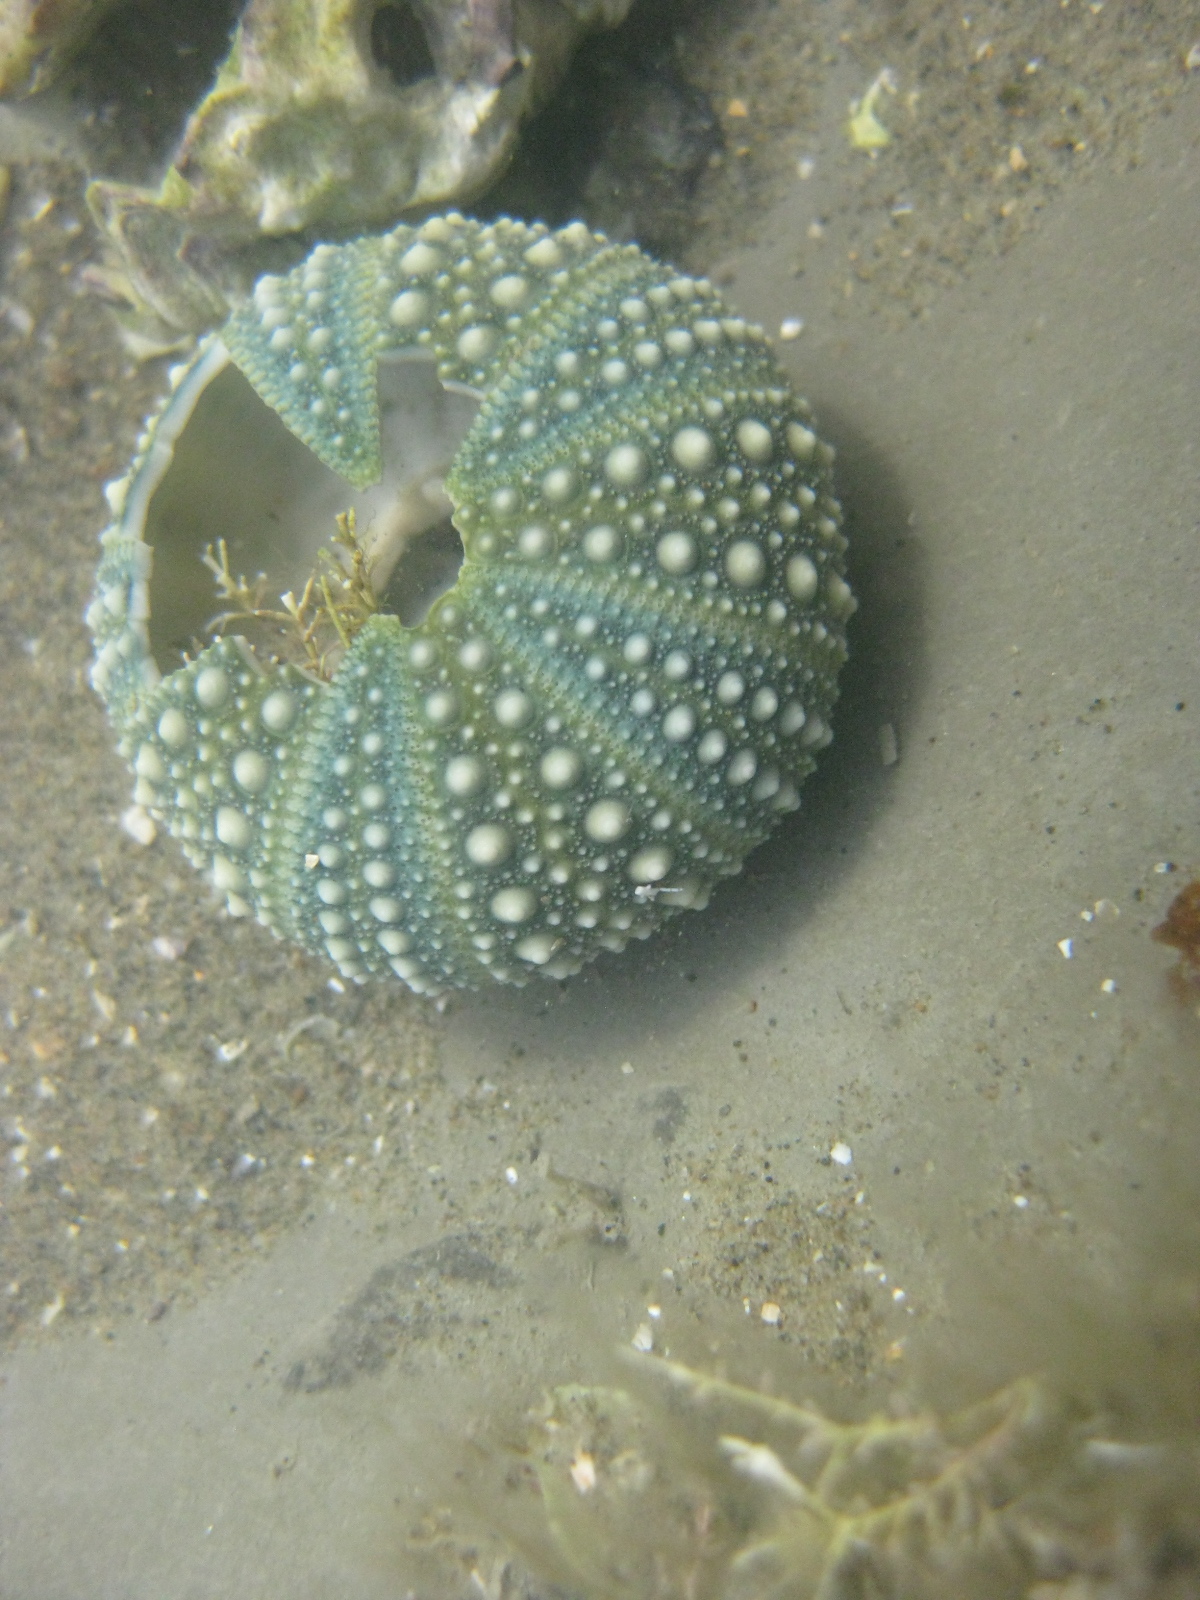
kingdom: Animalia
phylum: Echinodermata
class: Echinoidea
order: Camarodonta
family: Echinometridae
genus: Evechinus
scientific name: Evechinus chloroticus
